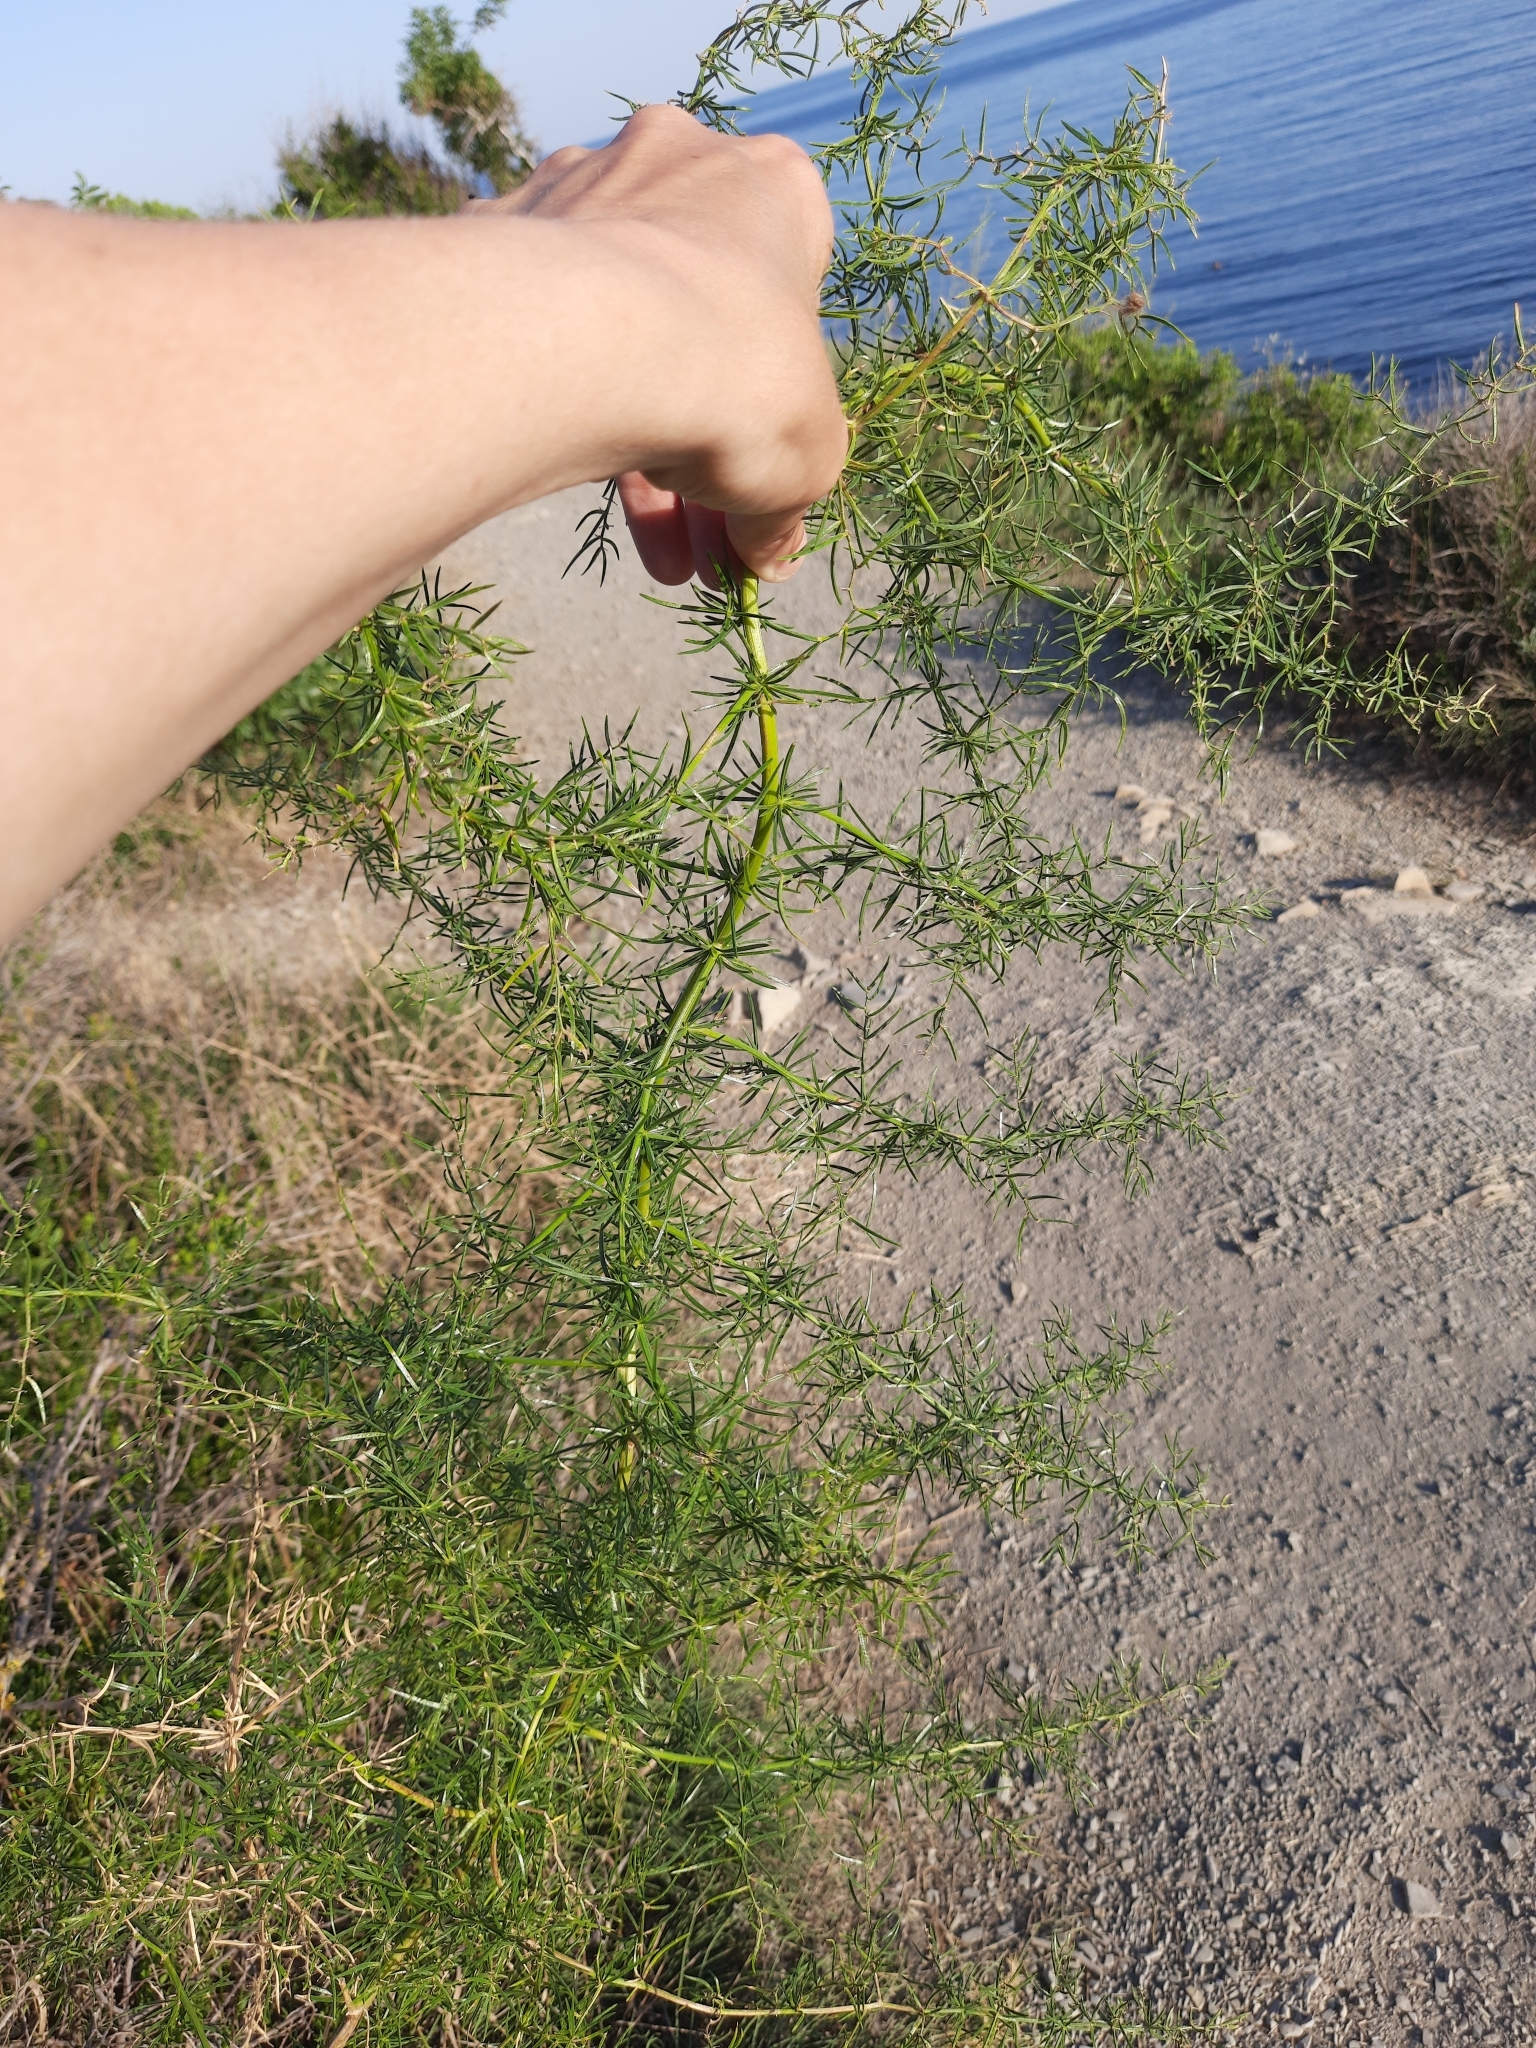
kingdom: Plantae
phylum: Tracheophyta
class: Liliopsida
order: Asparagales
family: Asparagaceae
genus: Asparagus
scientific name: Asparagus verticillatus
